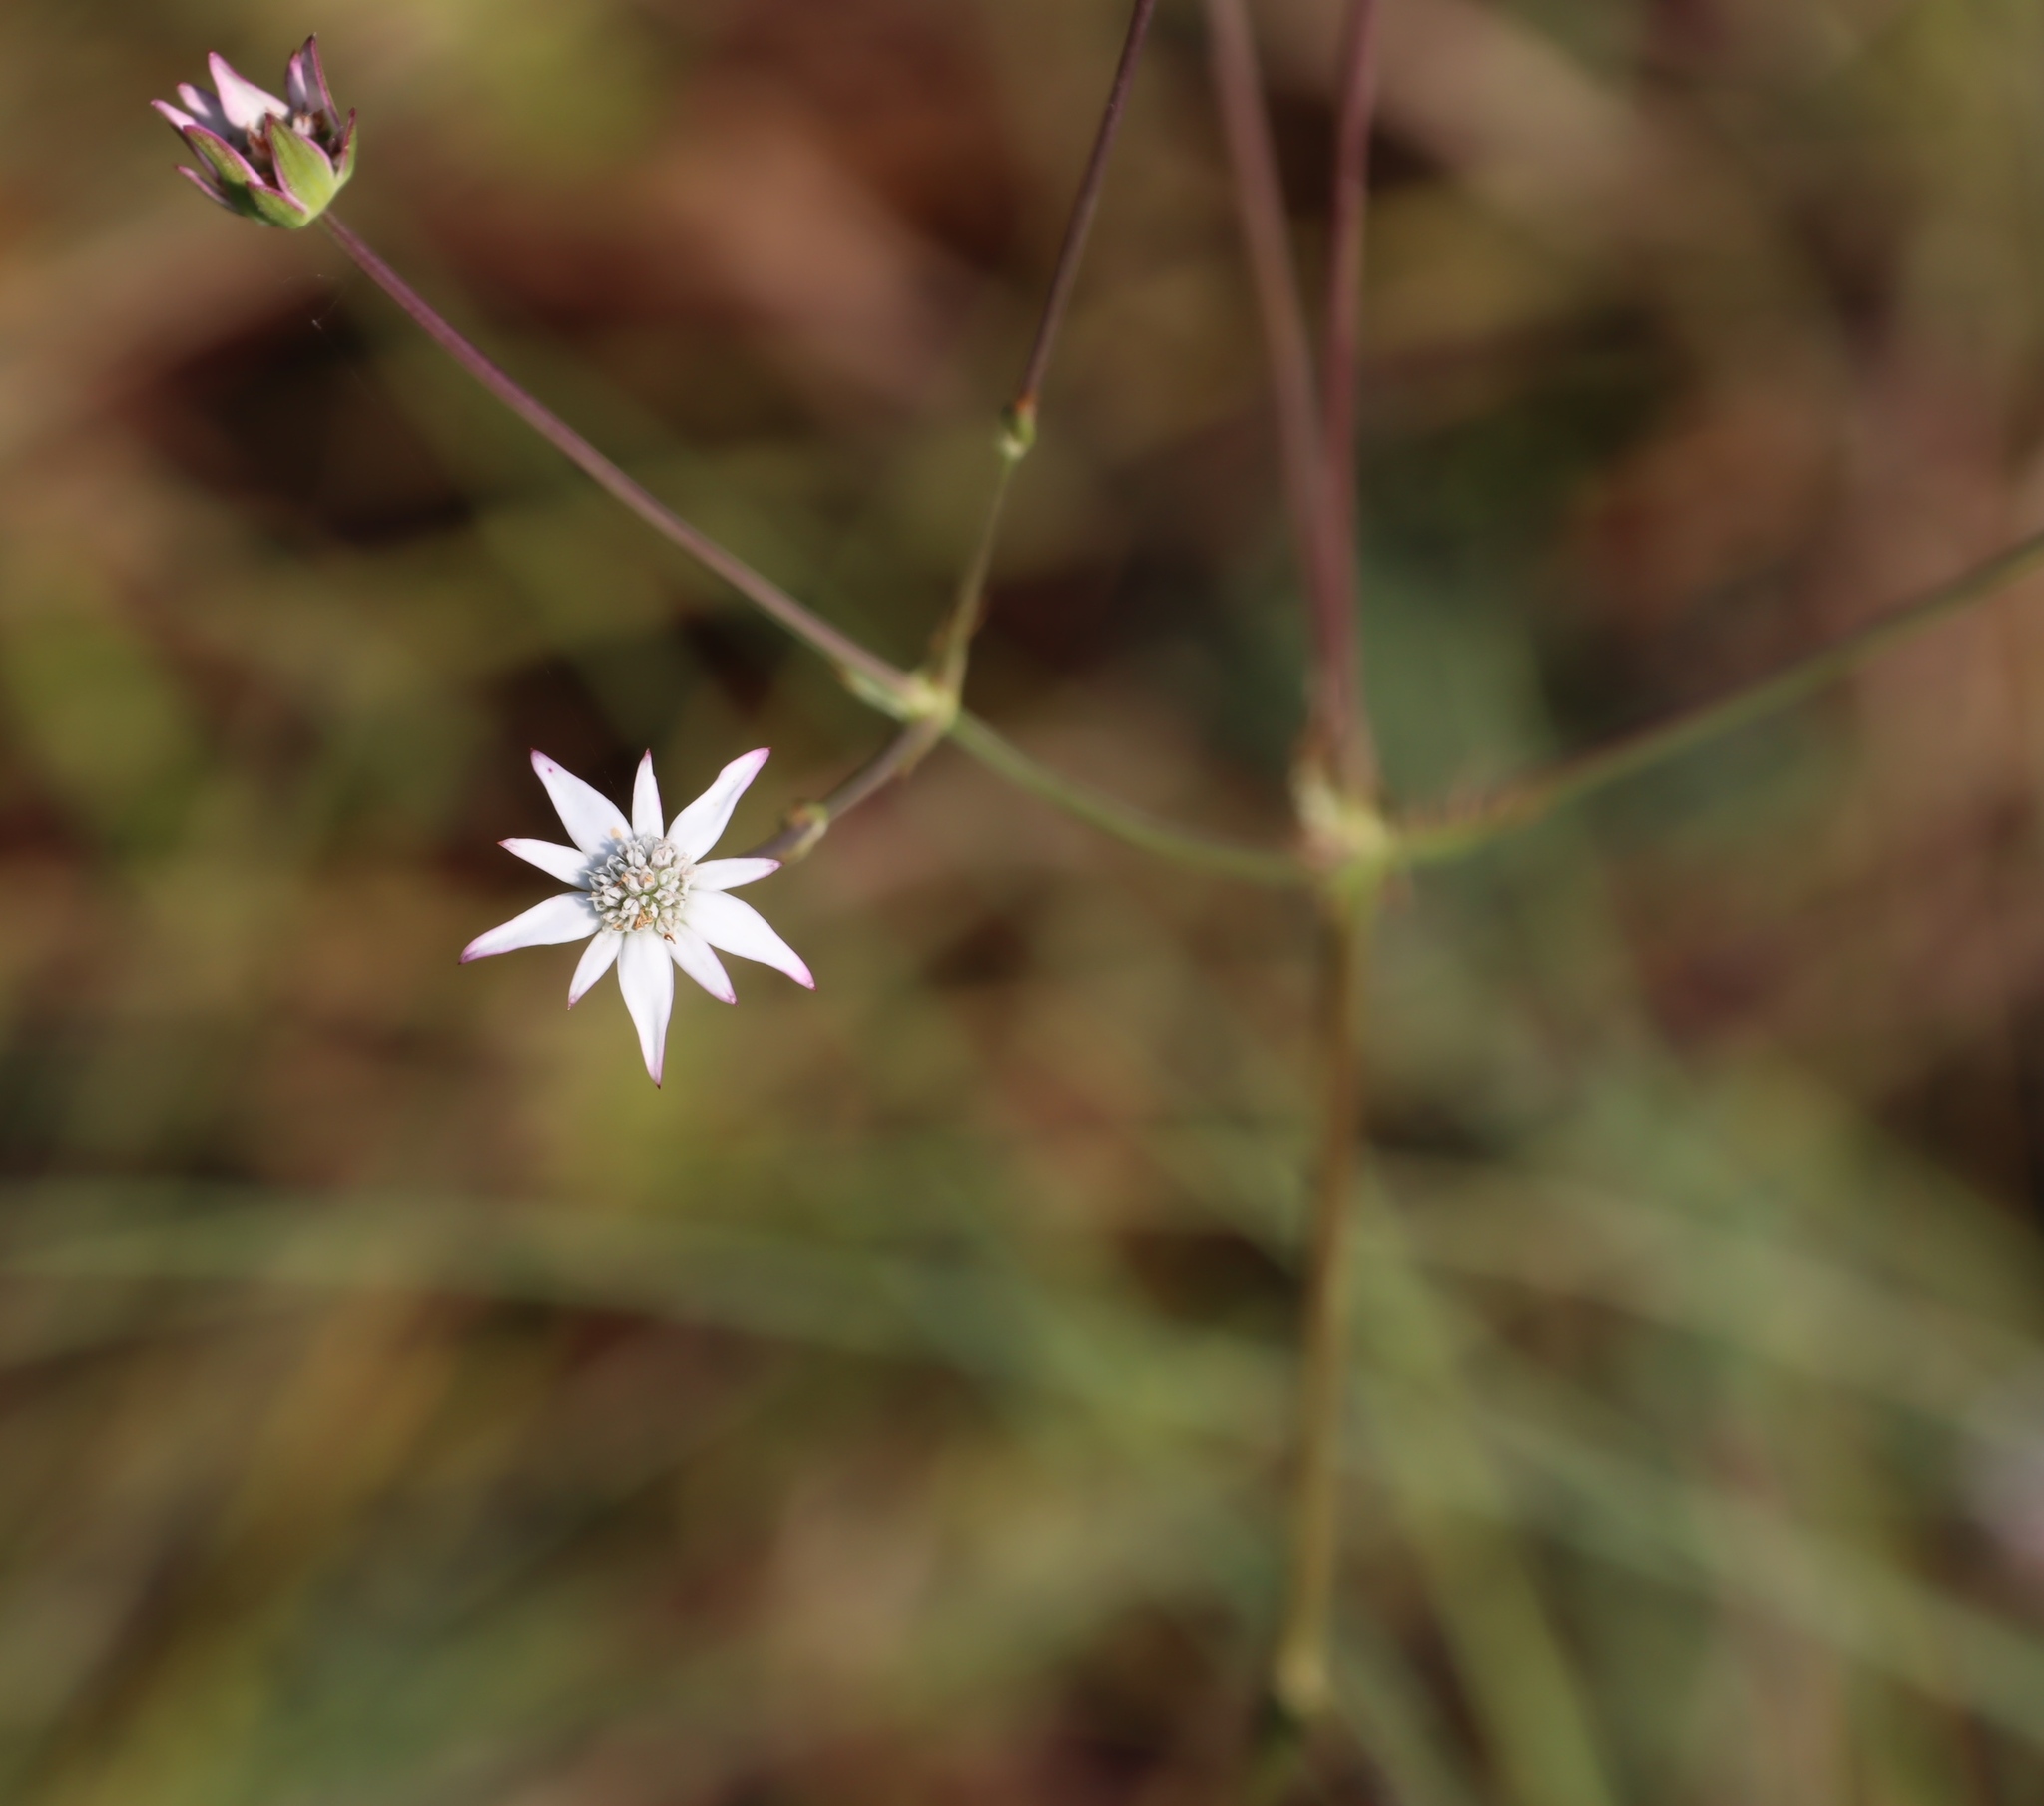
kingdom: Plantae
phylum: Tracheophyta
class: Magnoliopsida
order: Apiales
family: Apiaceae
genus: Alepidea
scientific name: Alepidea peduncularis
